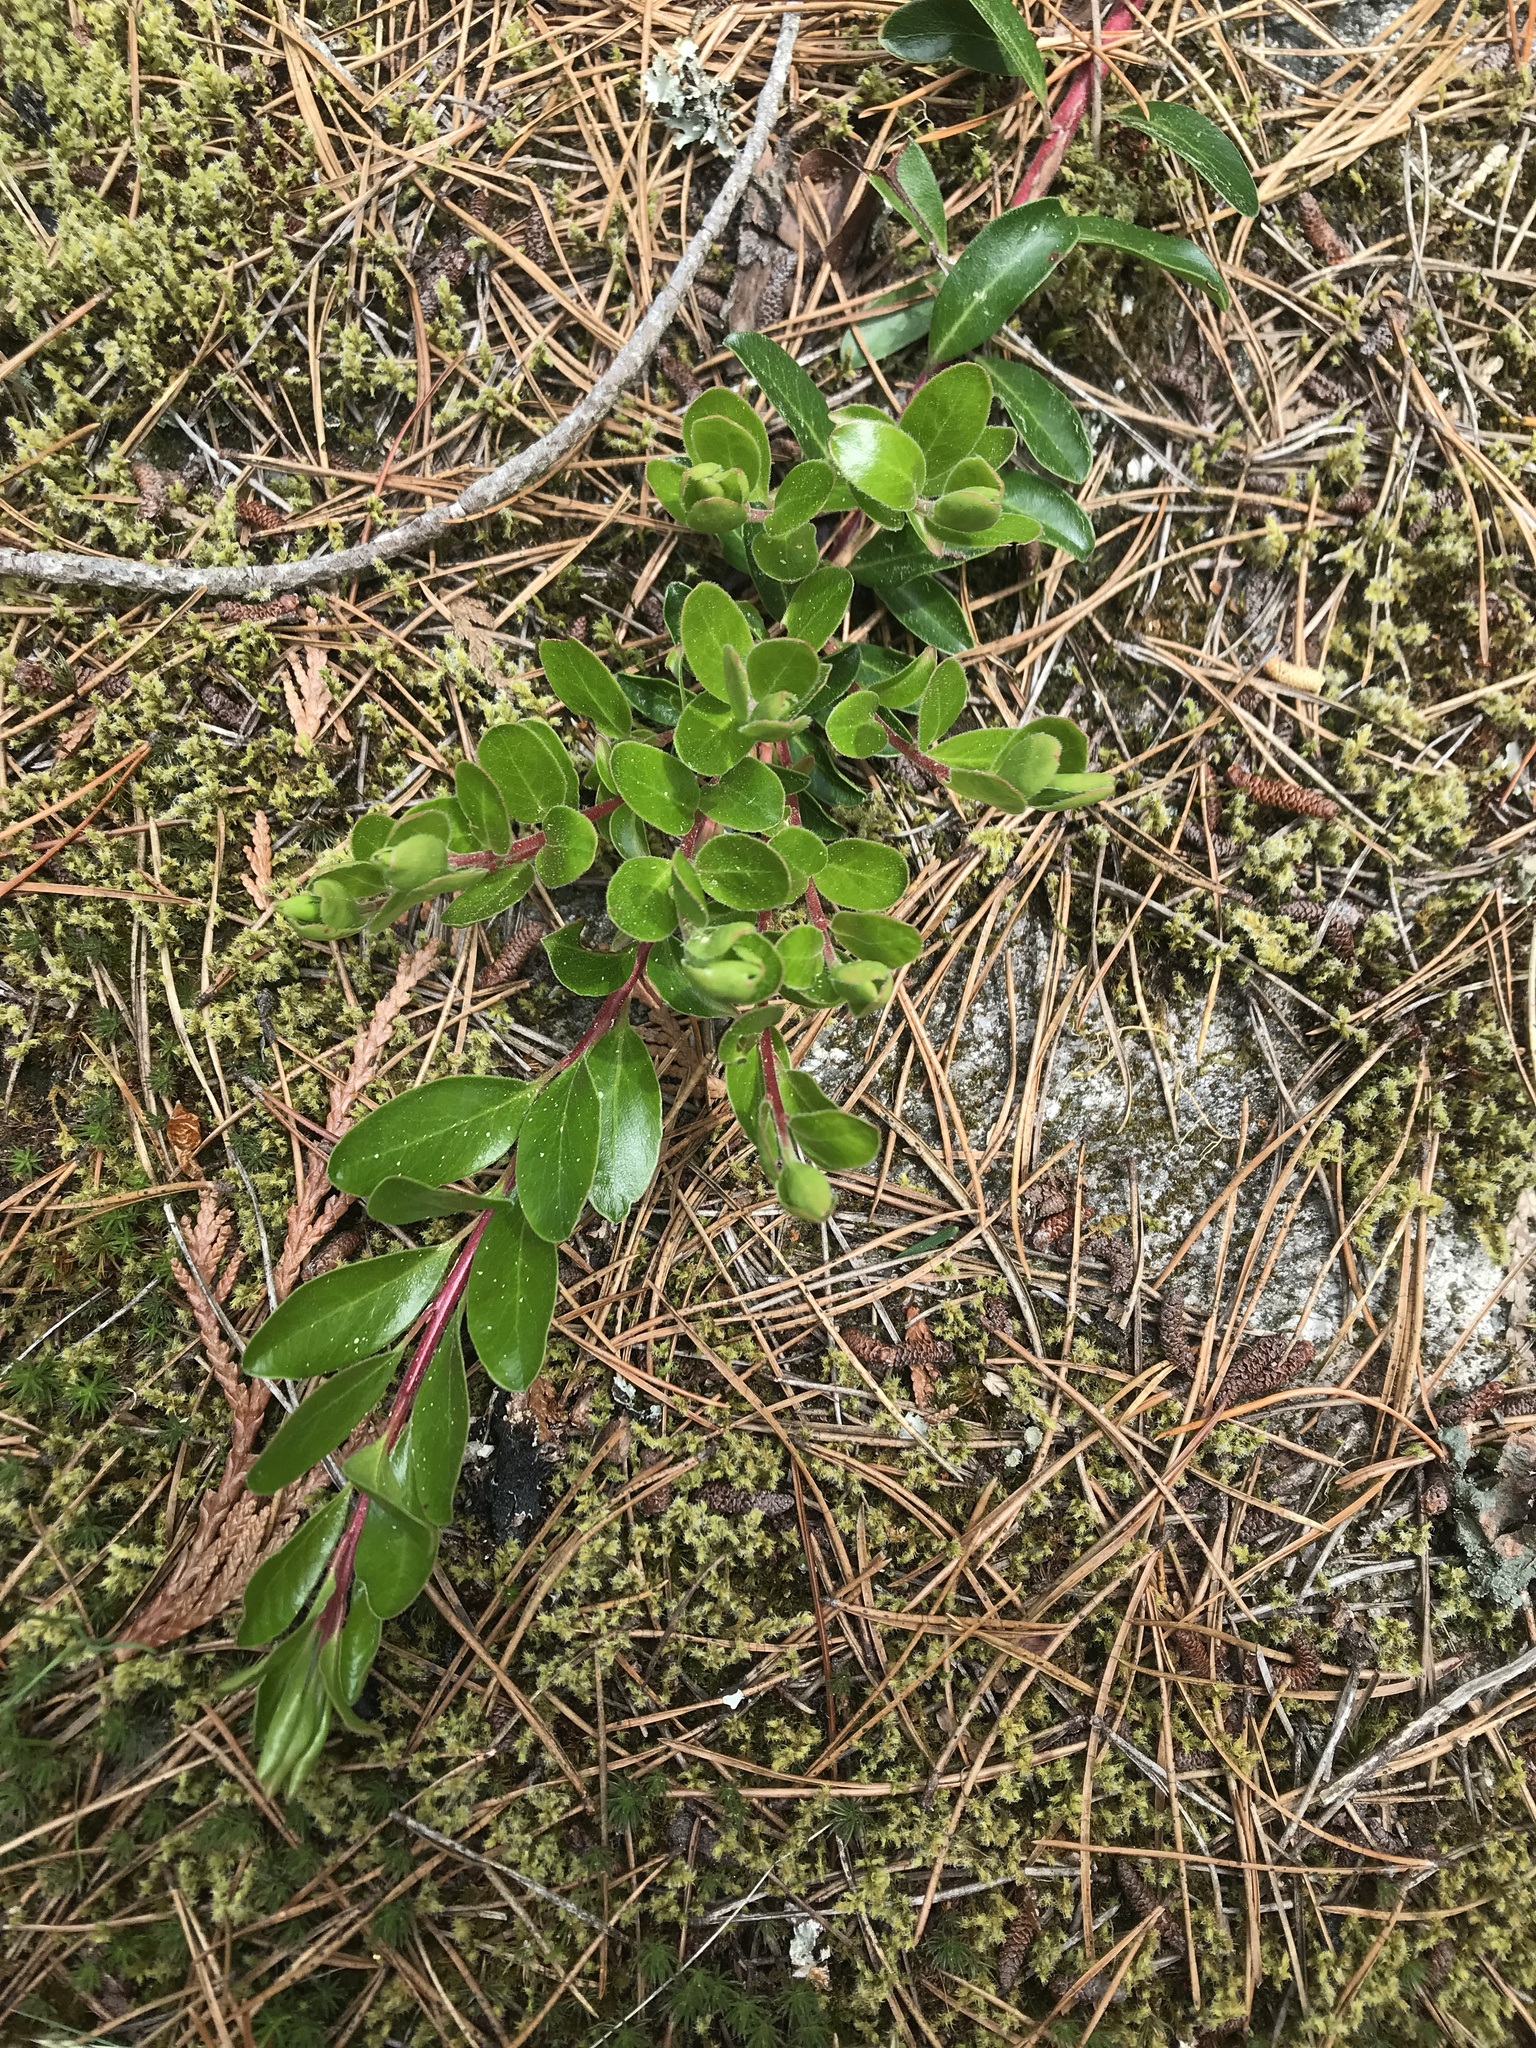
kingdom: Plantae
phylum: Tracheophyta
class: Magnoliopsida
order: Ericales
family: Ericaceae
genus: Arctostaphylos
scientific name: Arctostaphylos uva-ursi
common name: Bearberry
